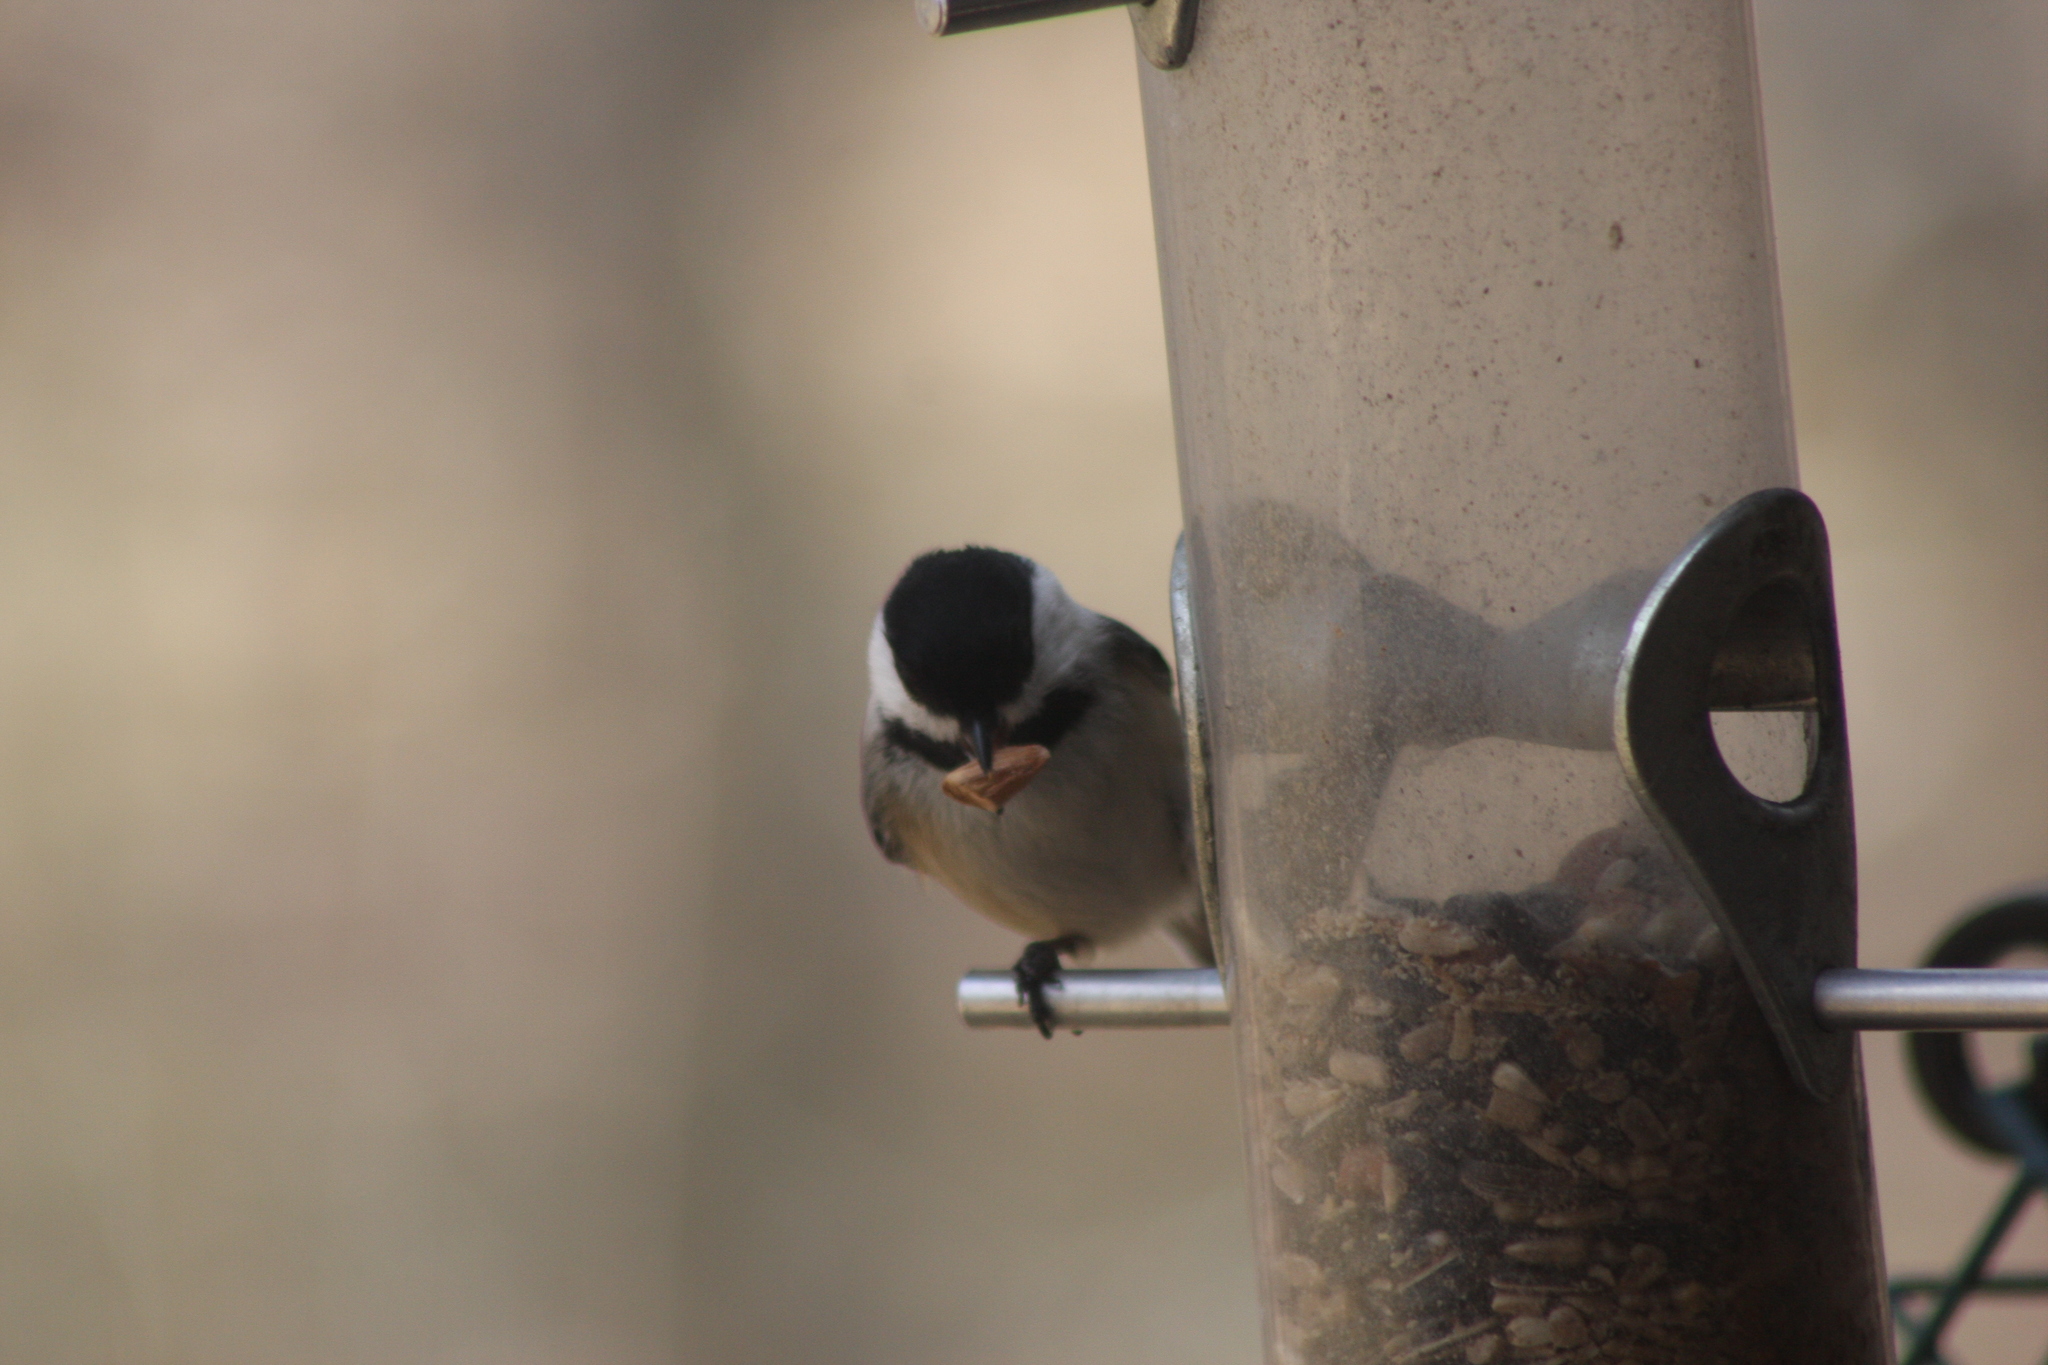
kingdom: Animalia
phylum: Chordata
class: Aves
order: Passeriformes
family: Paridae
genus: Poecile
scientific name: Poecile atricapillus
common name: Black-capped chickadee
